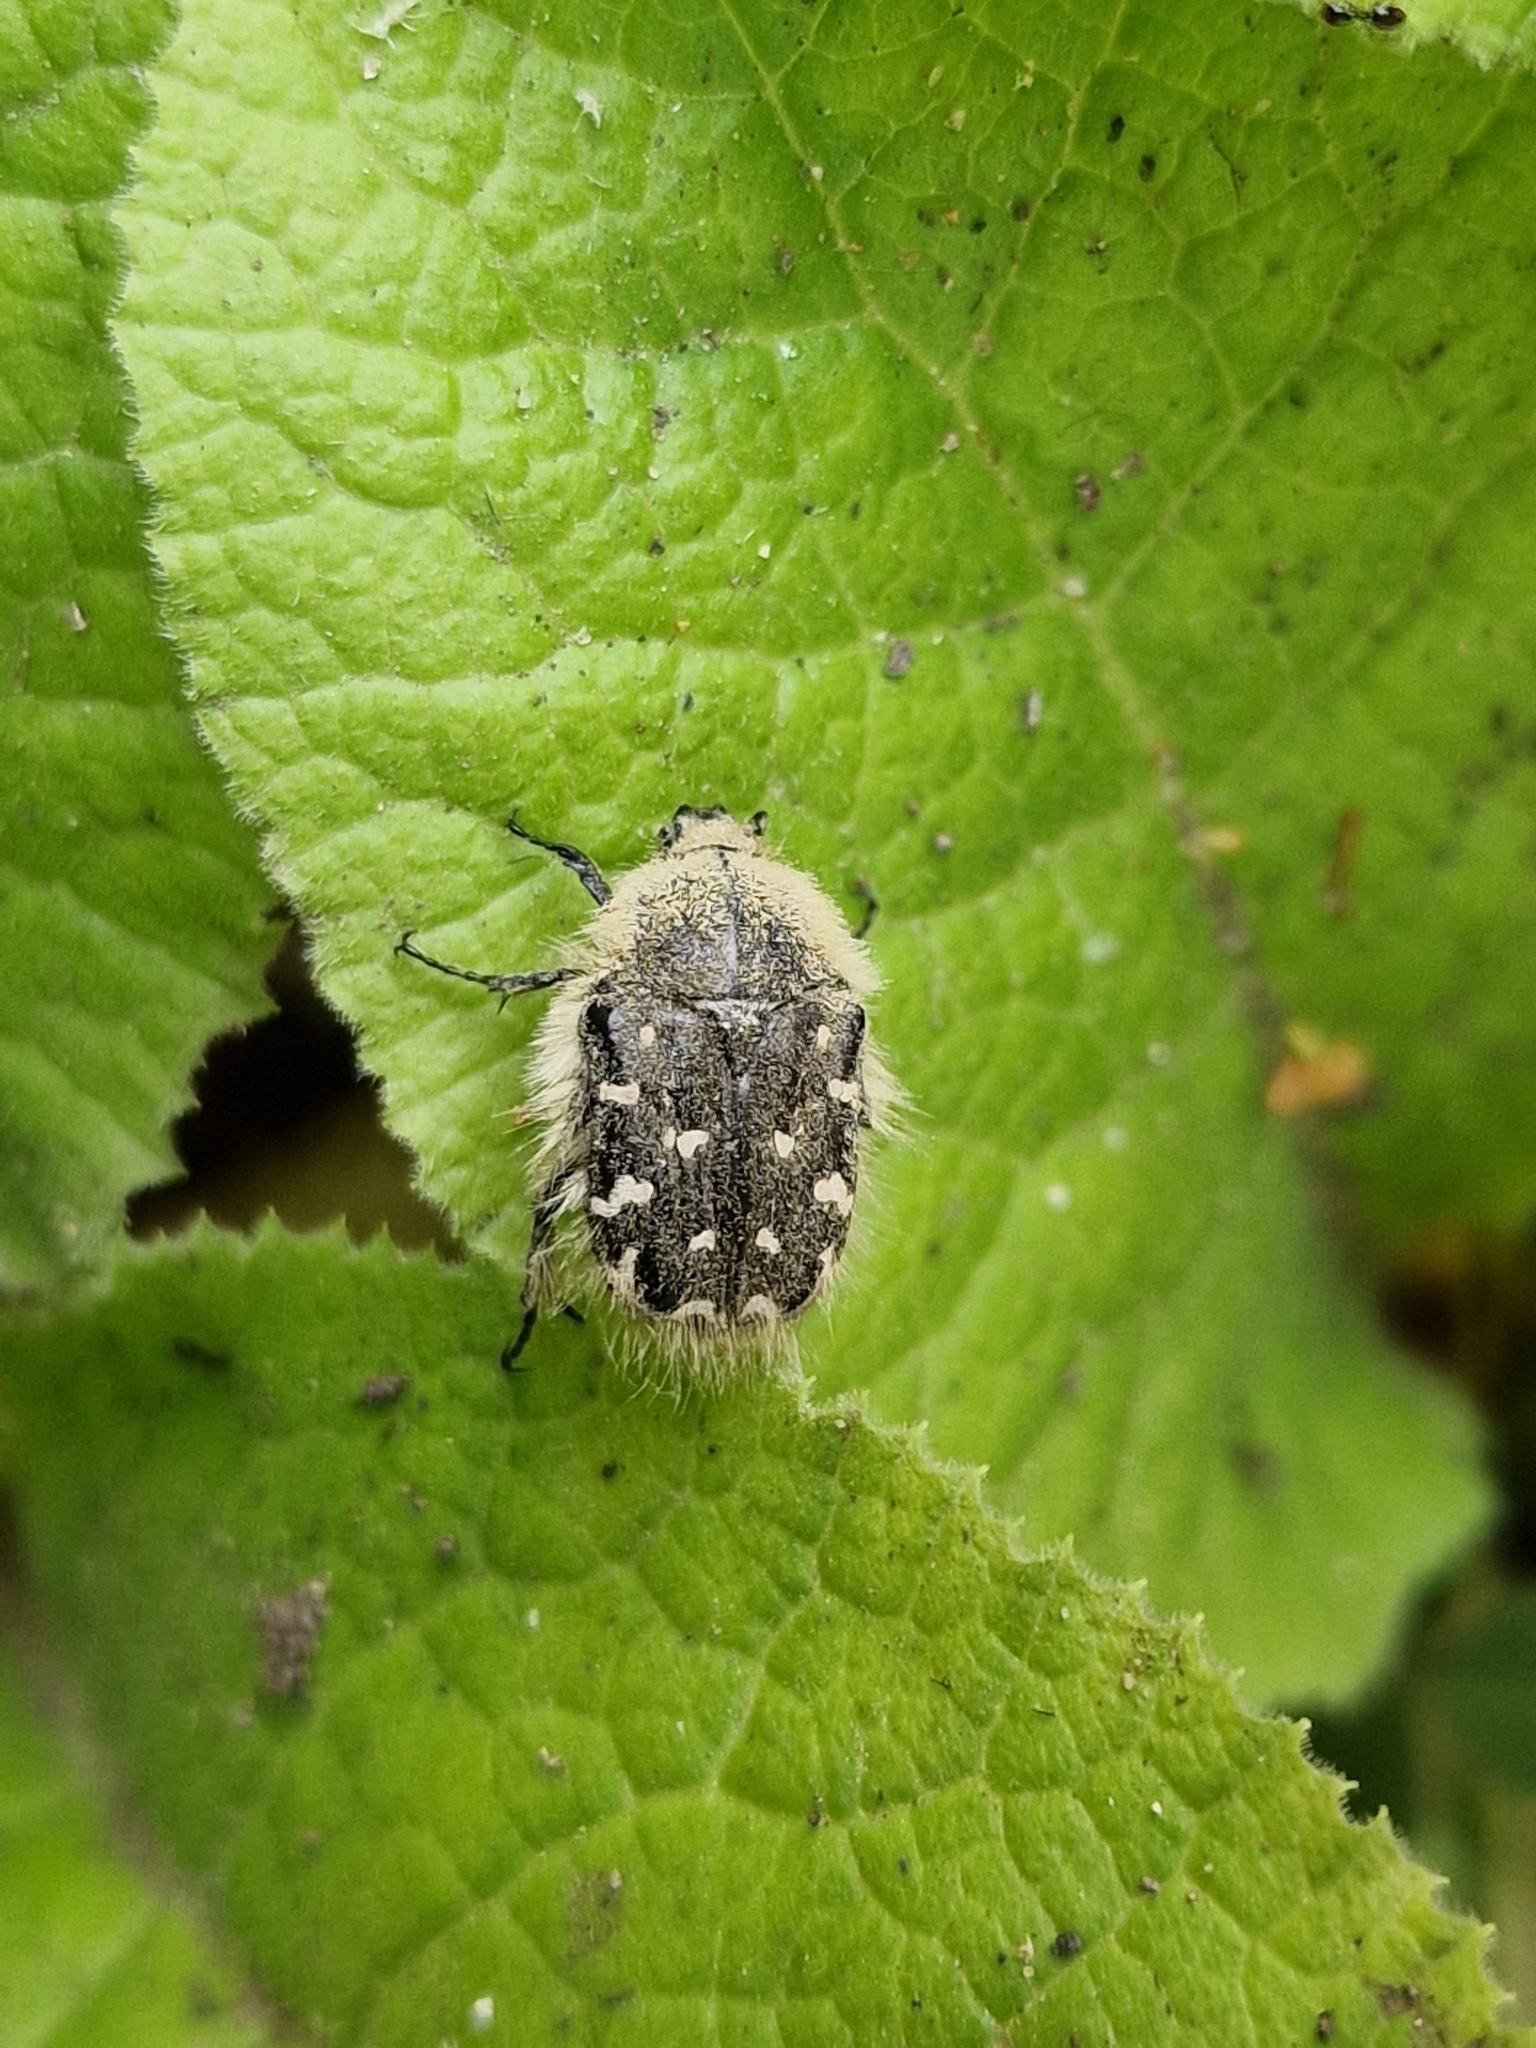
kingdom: Animalia
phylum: Arthropoda
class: Insecta
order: Coleoptera
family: Scarabaeidae
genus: Tropinota
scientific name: Tropinota hirta
